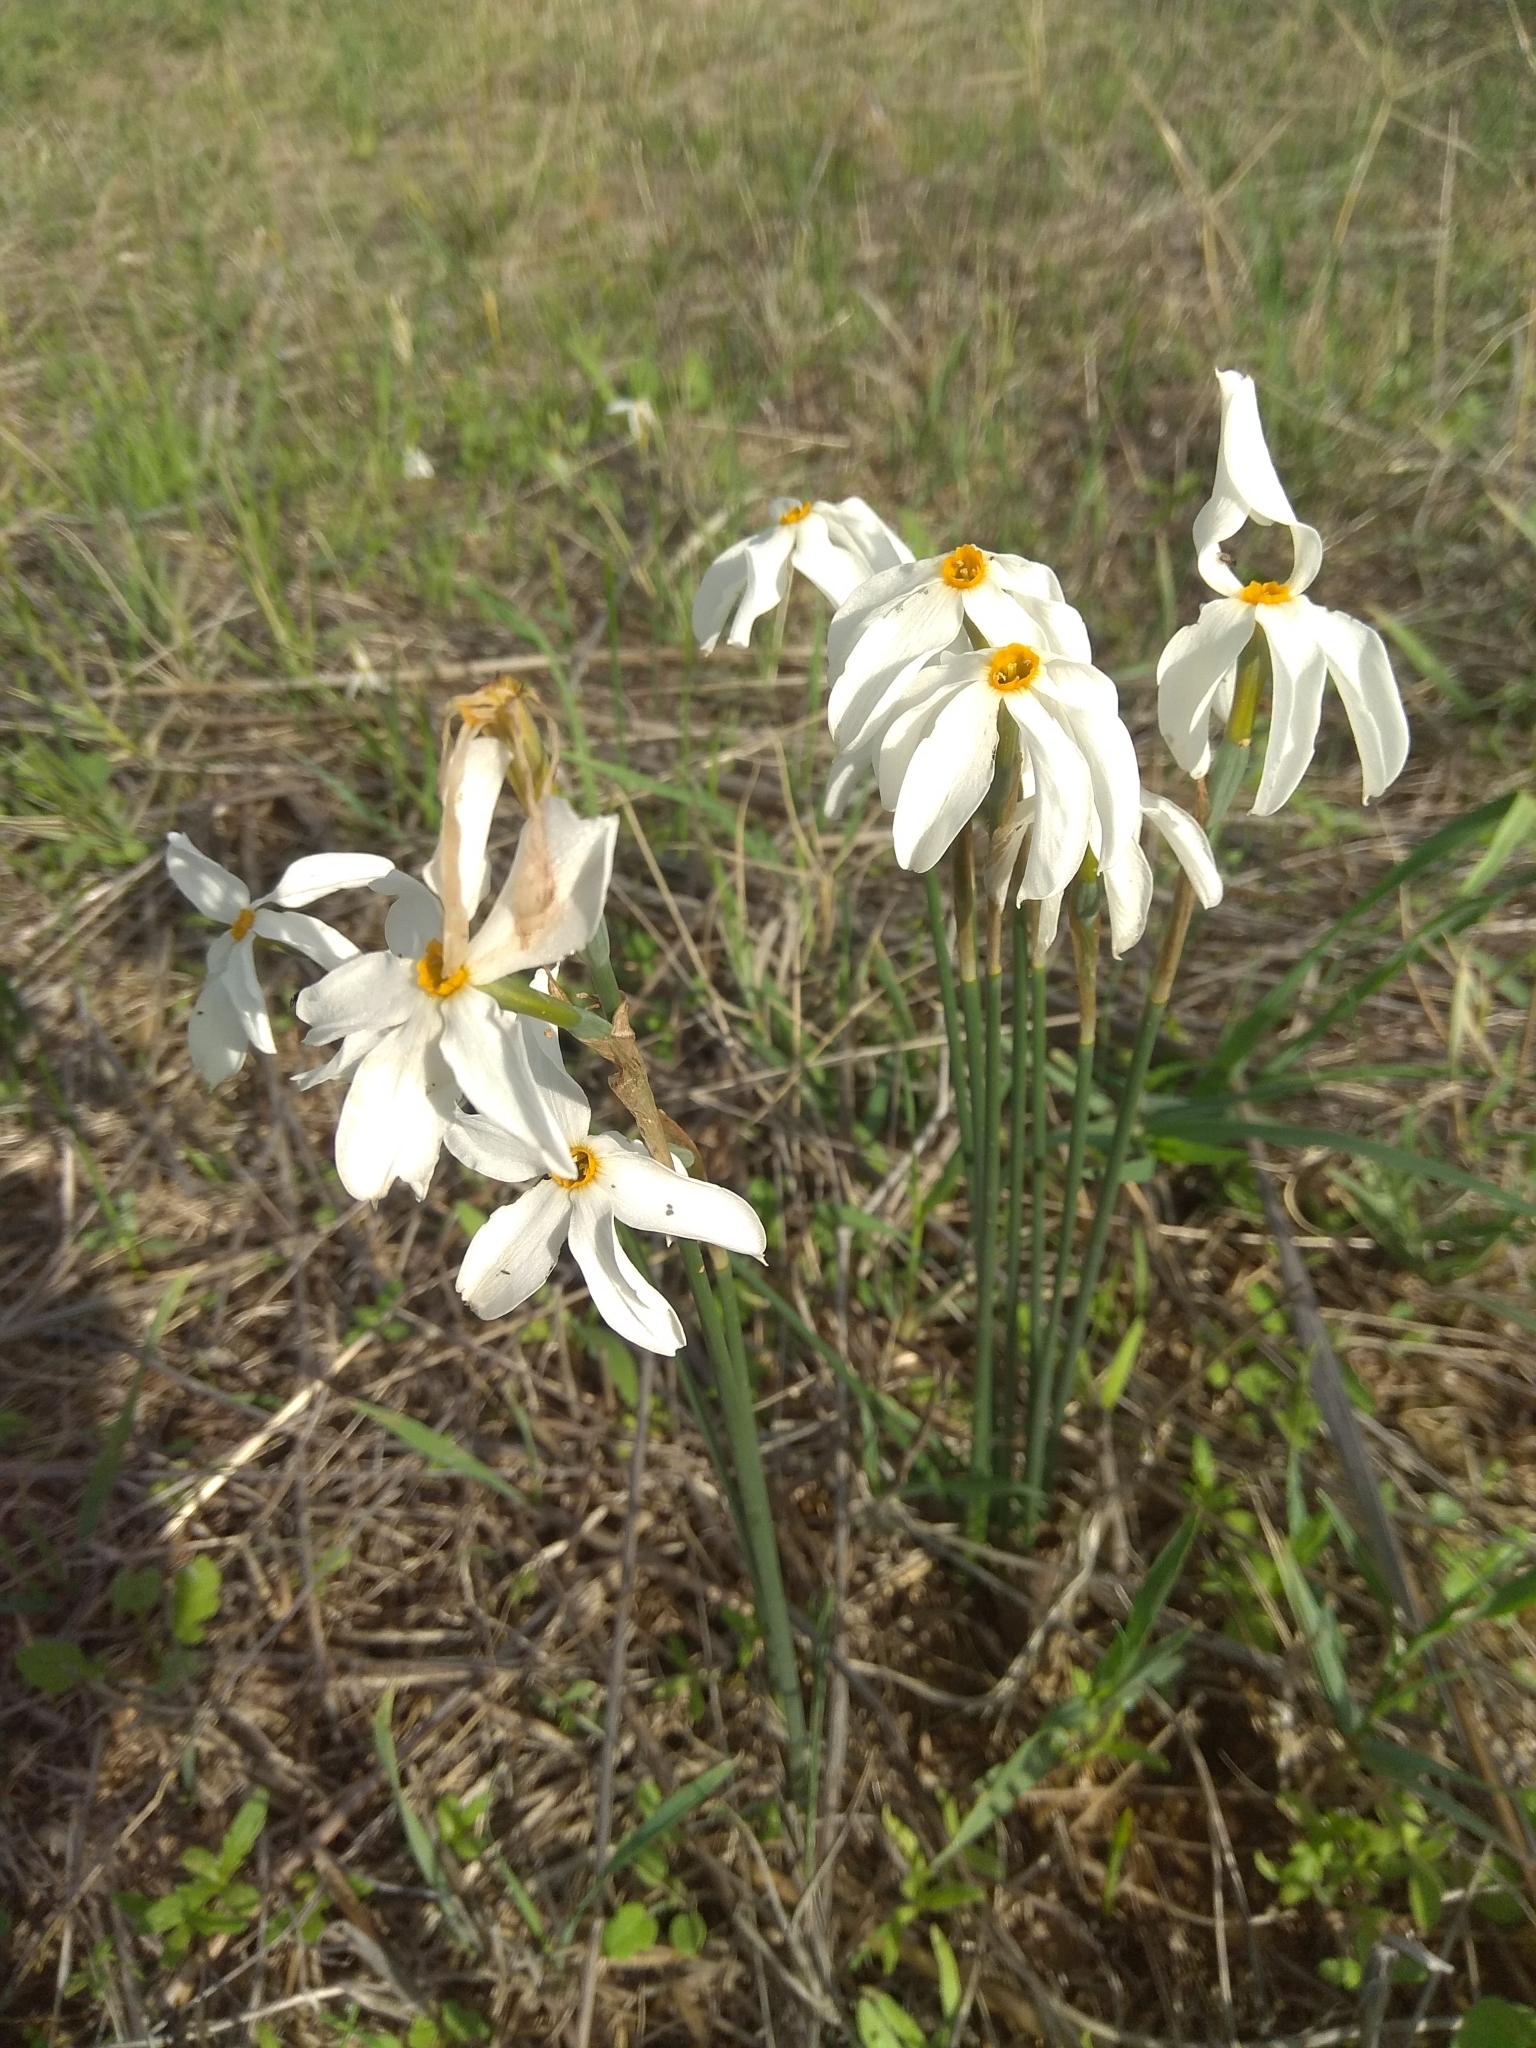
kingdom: Plantae
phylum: Tracheophyta
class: Liliopsida
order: Asparagales
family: Amaryllidaceae
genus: Narcissus
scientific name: Narcissus deficiens
